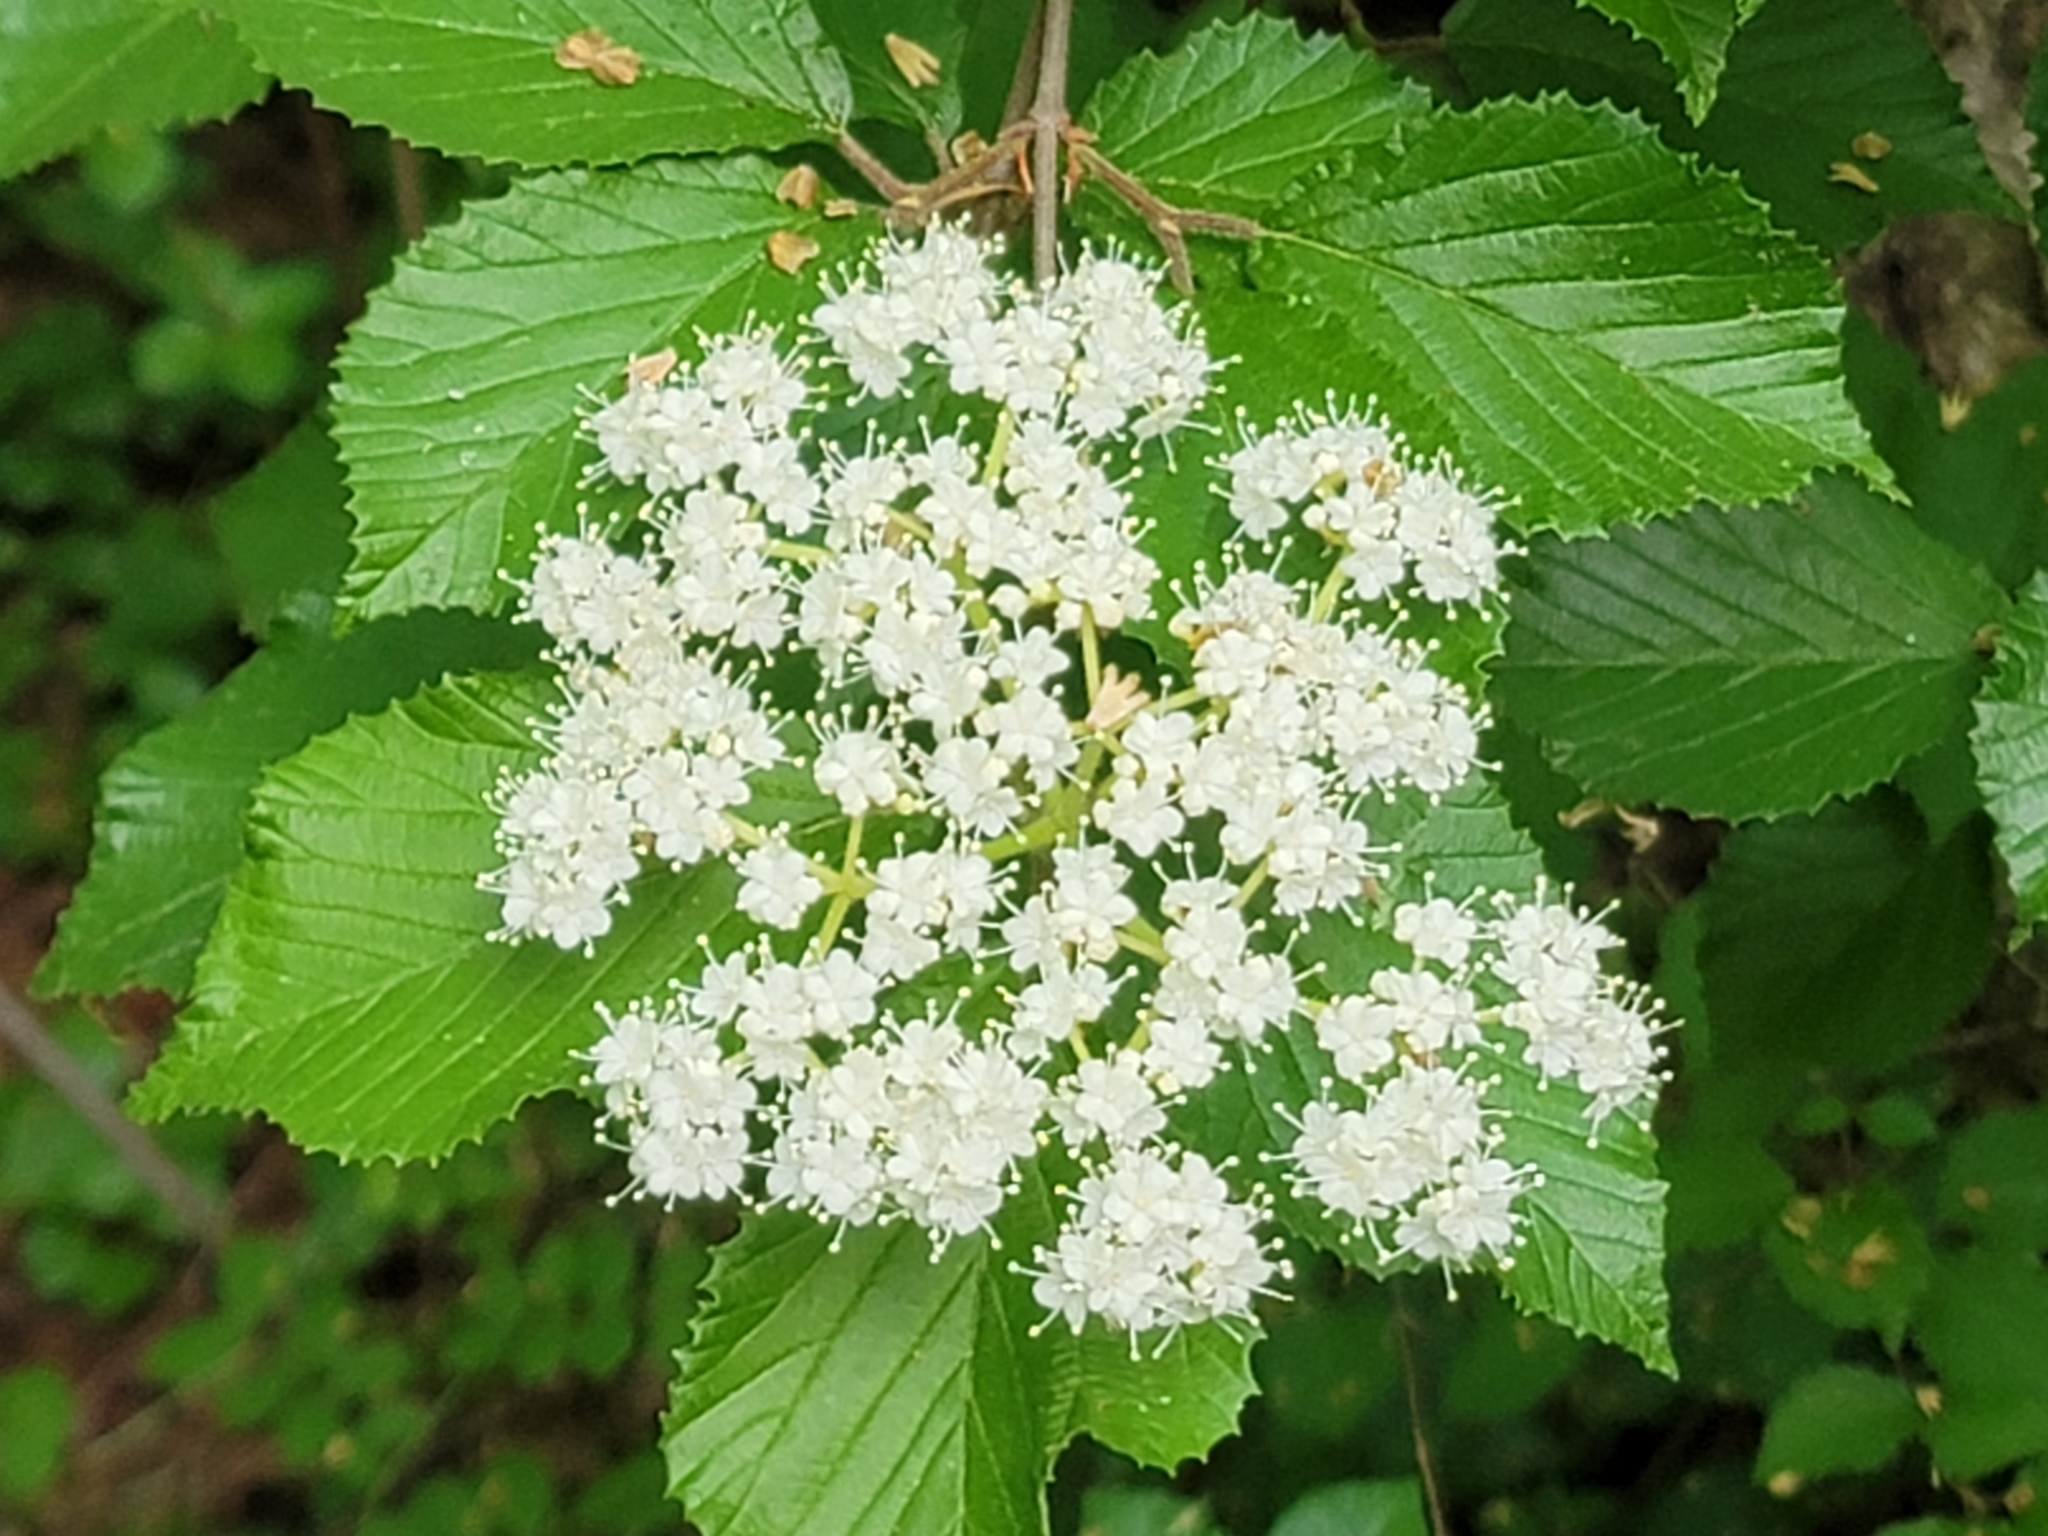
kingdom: Plantae
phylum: Tracheophyta
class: Magnoliopsida
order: Dipsacales
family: Viburnaceae
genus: Viburnum
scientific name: Viburnum dilatatum
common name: Linden arrowwood
